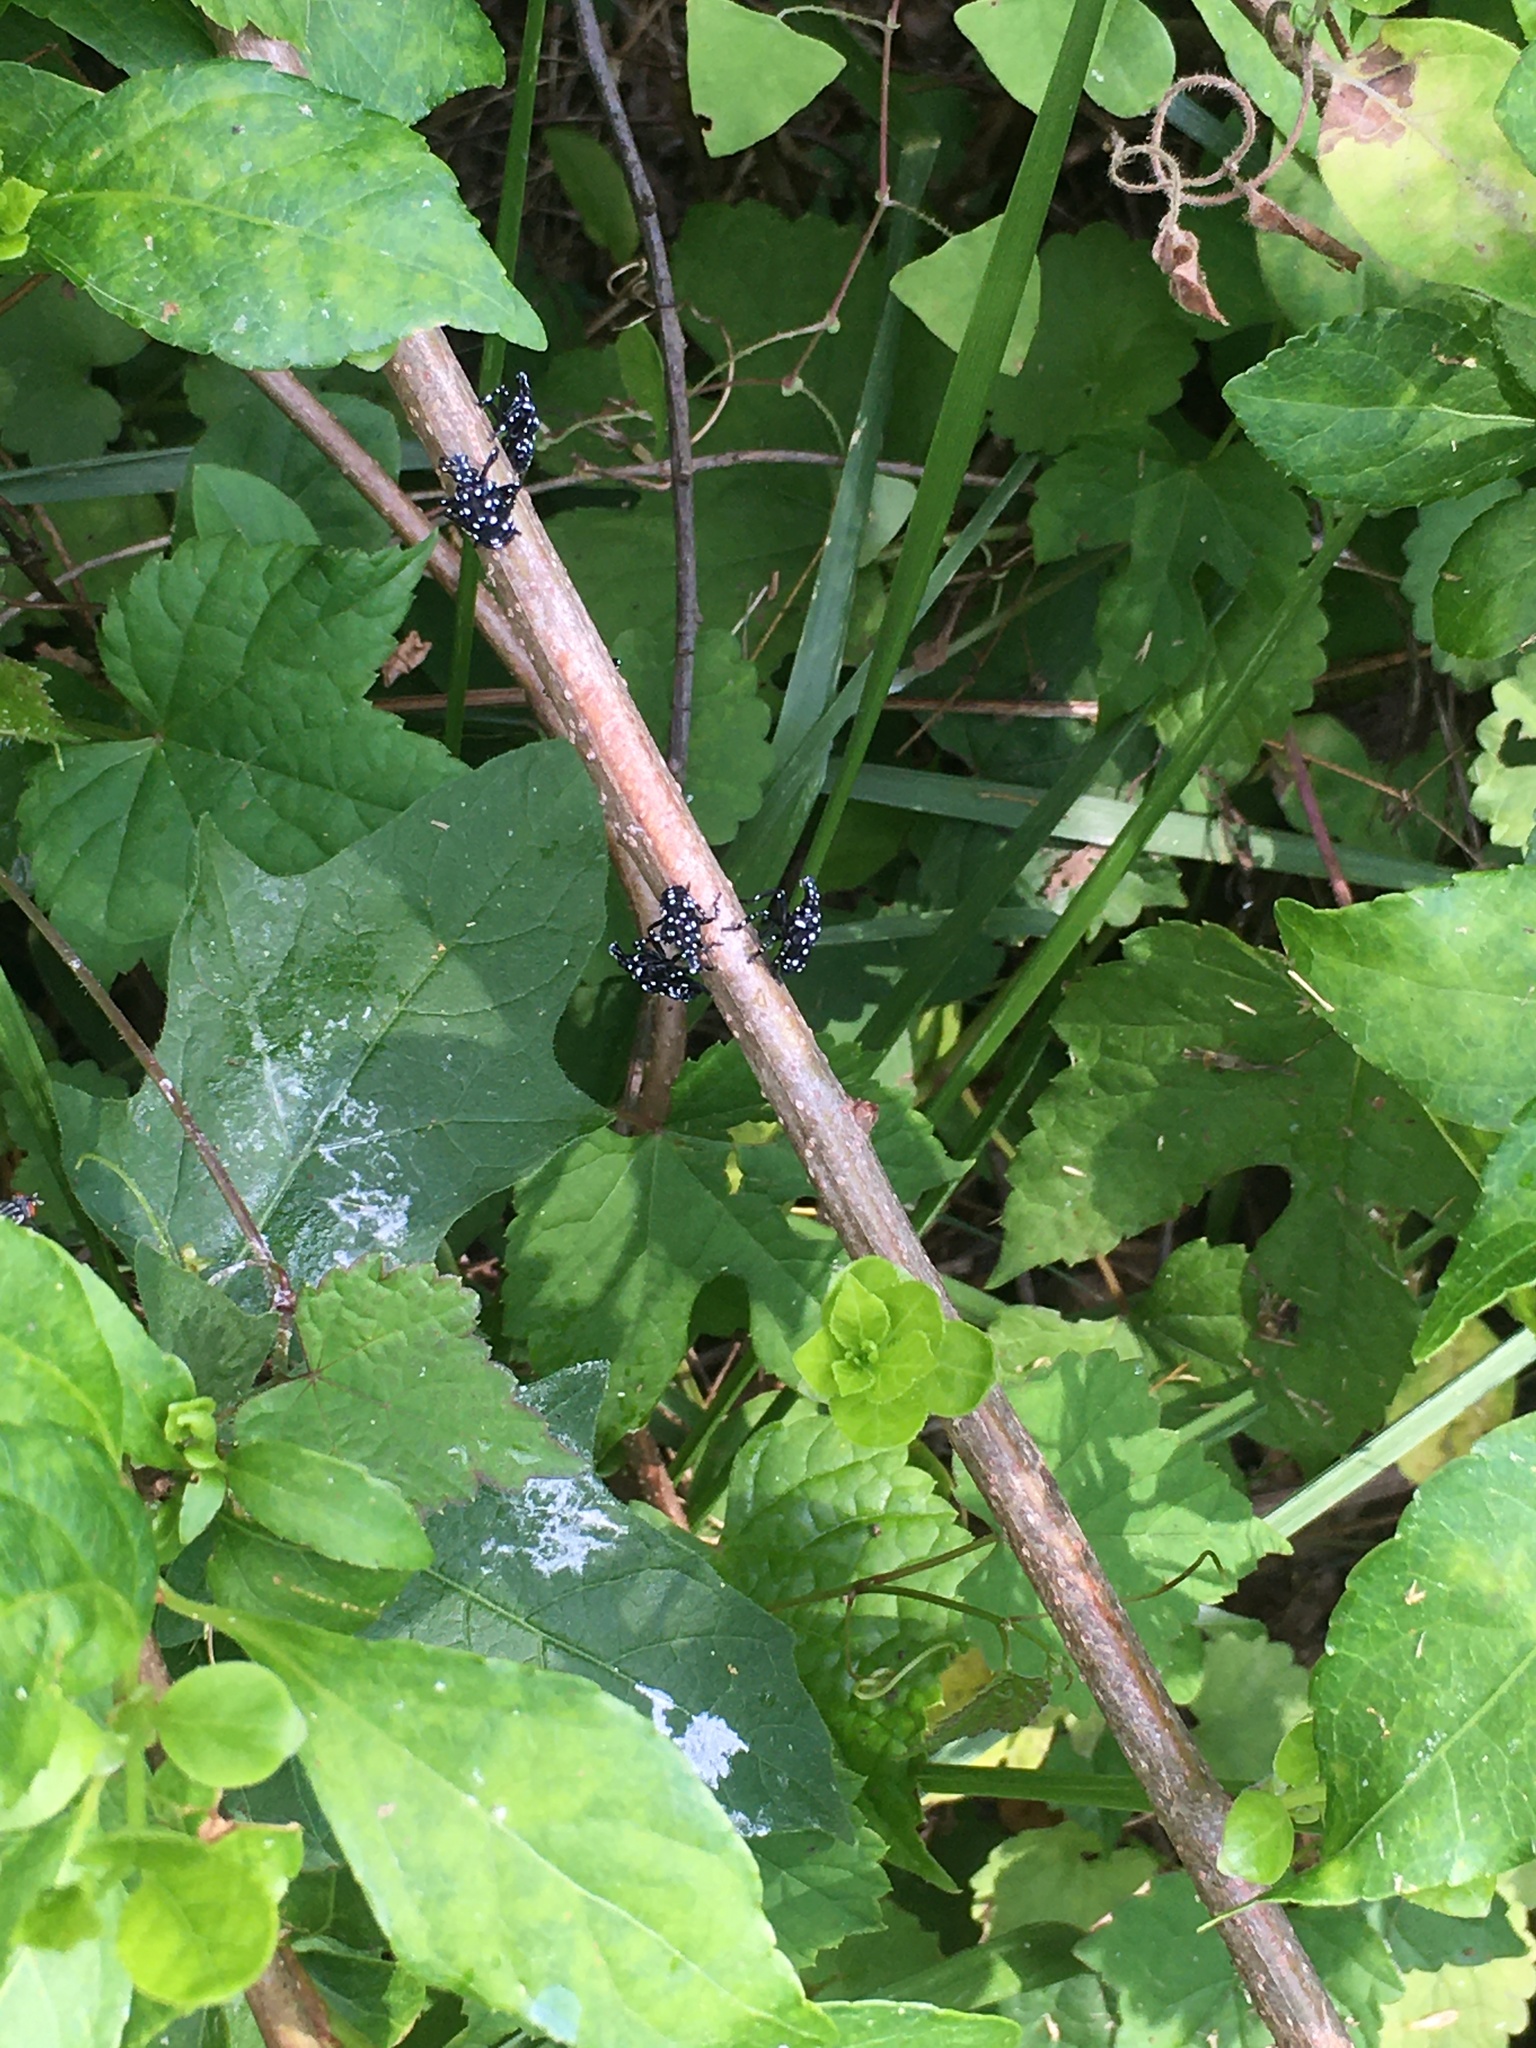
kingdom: Animalia
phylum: Arthropoda
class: Insecta
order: Hemiptera
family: Fulgoridae
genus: Lycorma
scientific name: Lycorma delicatula
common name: Spotted lanternfly
